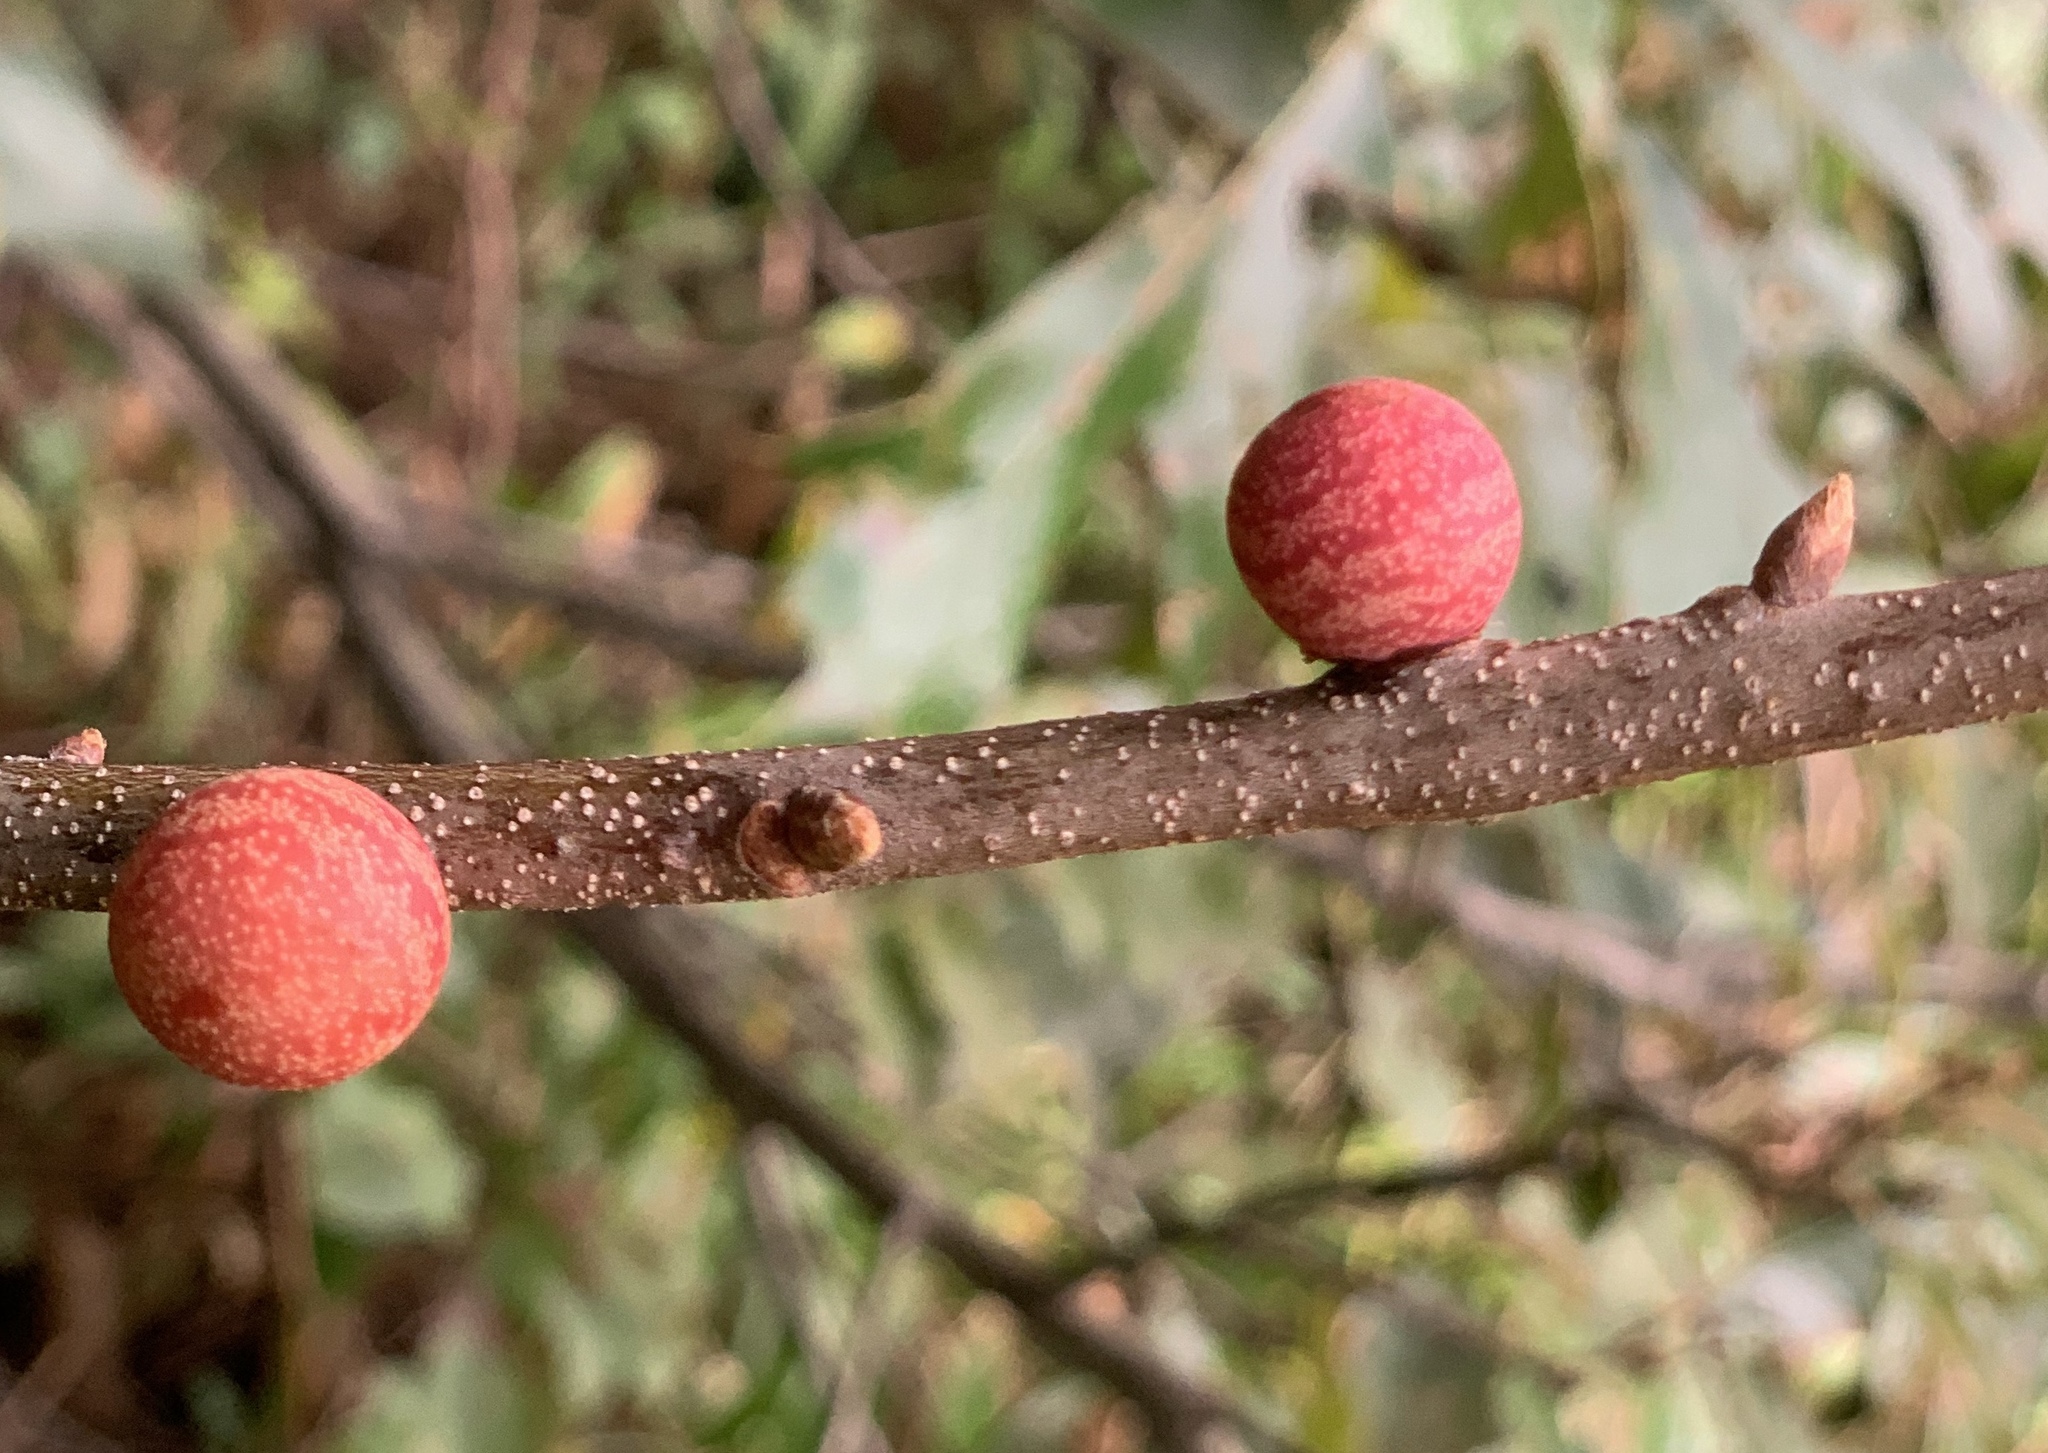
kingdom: Animalia
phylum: Arthropoda
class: Insecta
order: Hymenoptera
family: Cynipidae
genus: Kokkocynips
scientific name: Kokkocynips imbricariae
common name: Banded bullet gall wasp
